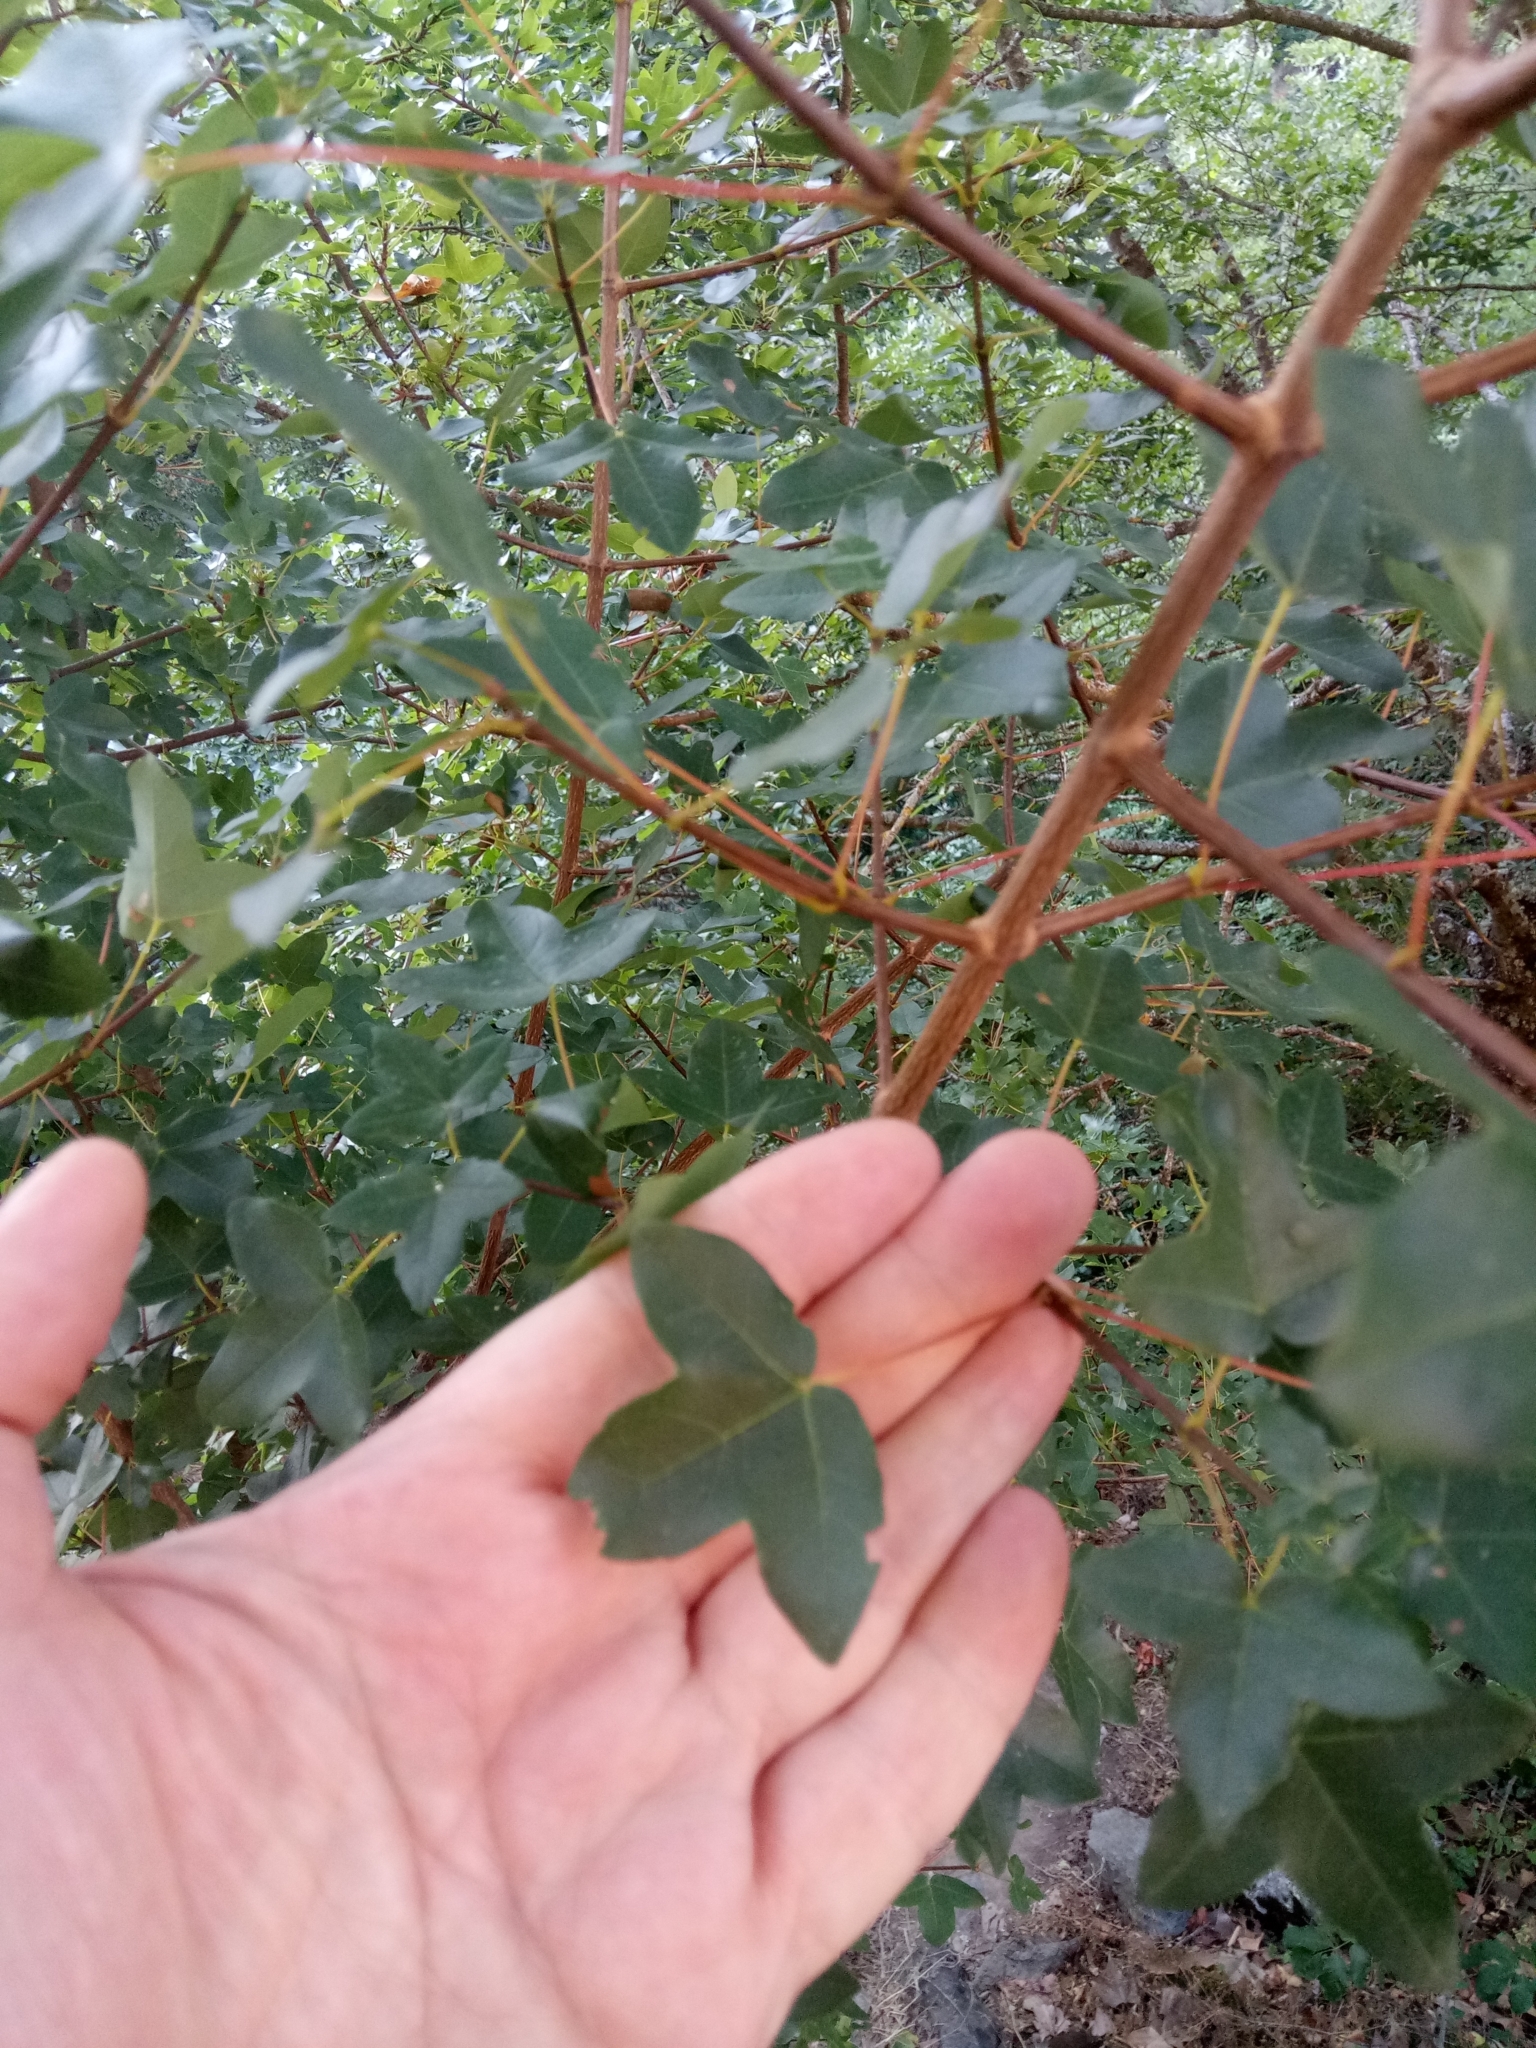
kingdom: Plantae
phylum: Tracheophyta
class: Magnoliopsida
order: Sapindales
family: Sapindaceae
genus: Acer
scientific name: Acer monspessulanum
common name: Montpellier maple
